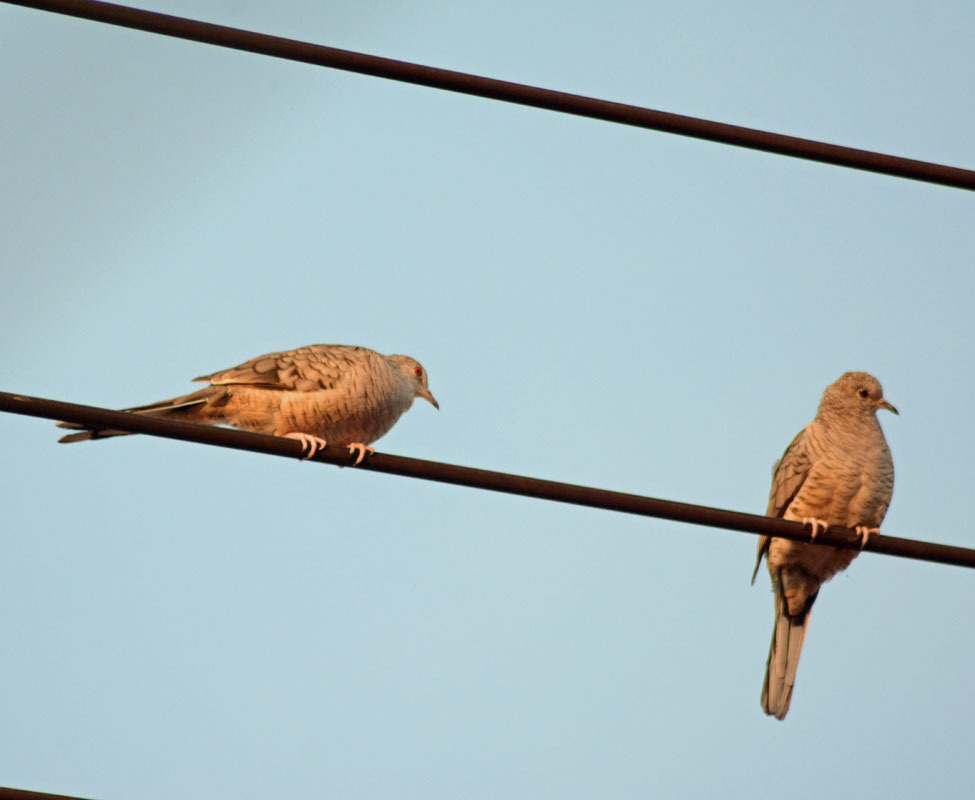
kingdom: Animalia
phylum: Chordata
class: Aves
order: Columbiformes
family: Columbidae
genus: Columbina
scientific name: Columbina inca
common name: Inca dove
